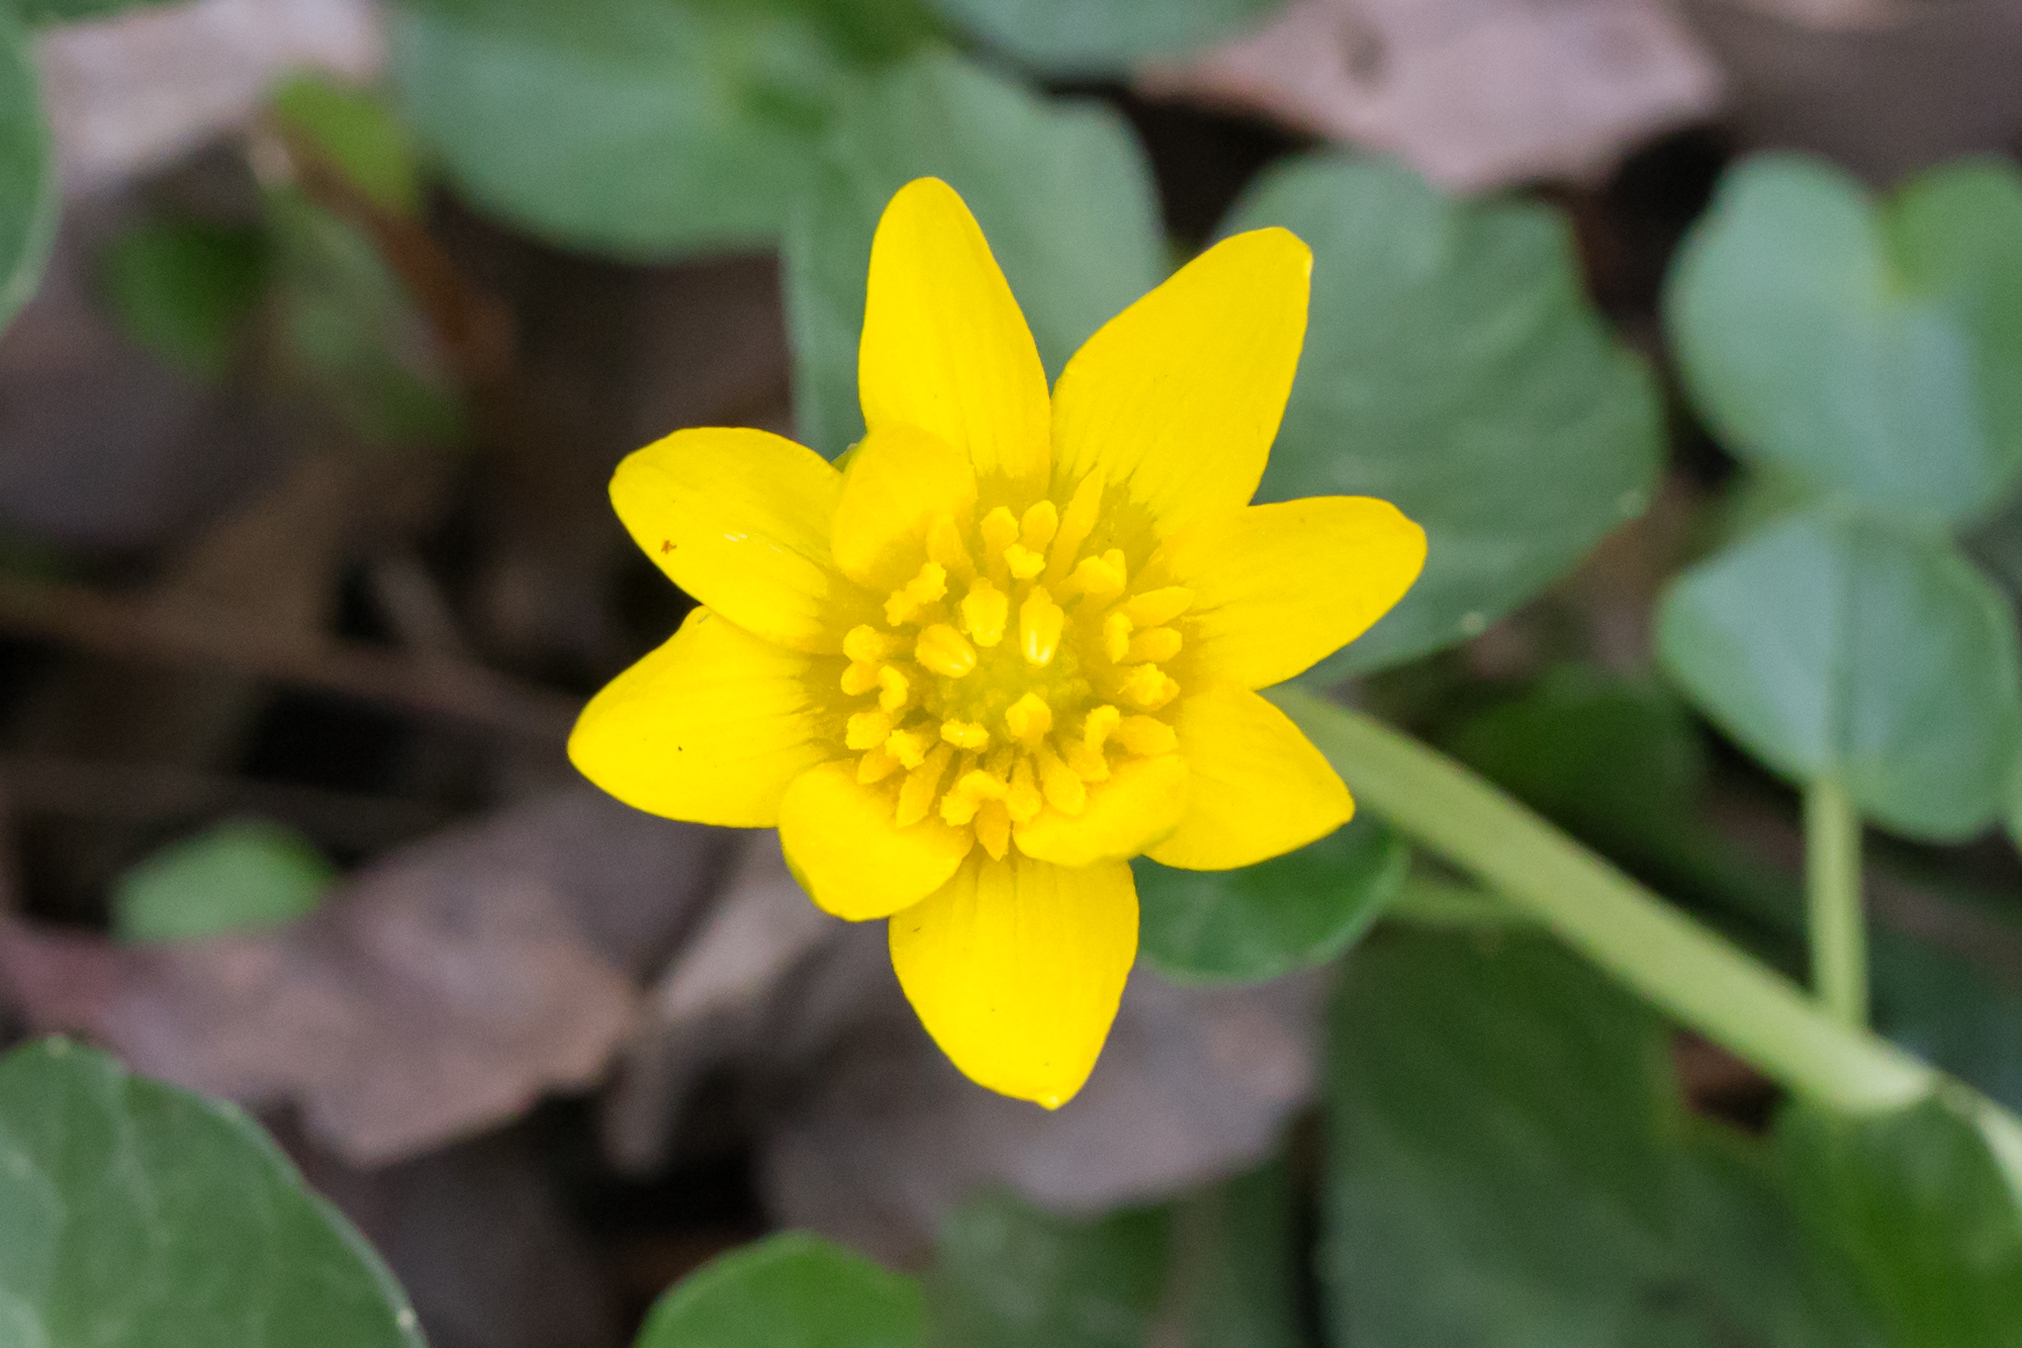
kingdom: Plantae
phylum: Tracheophyta
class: Magnoliopsida
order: Ranunculales
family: Ranunculaceae
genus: Ficaria
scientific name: Ficaria verna
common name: Lesser celandine
